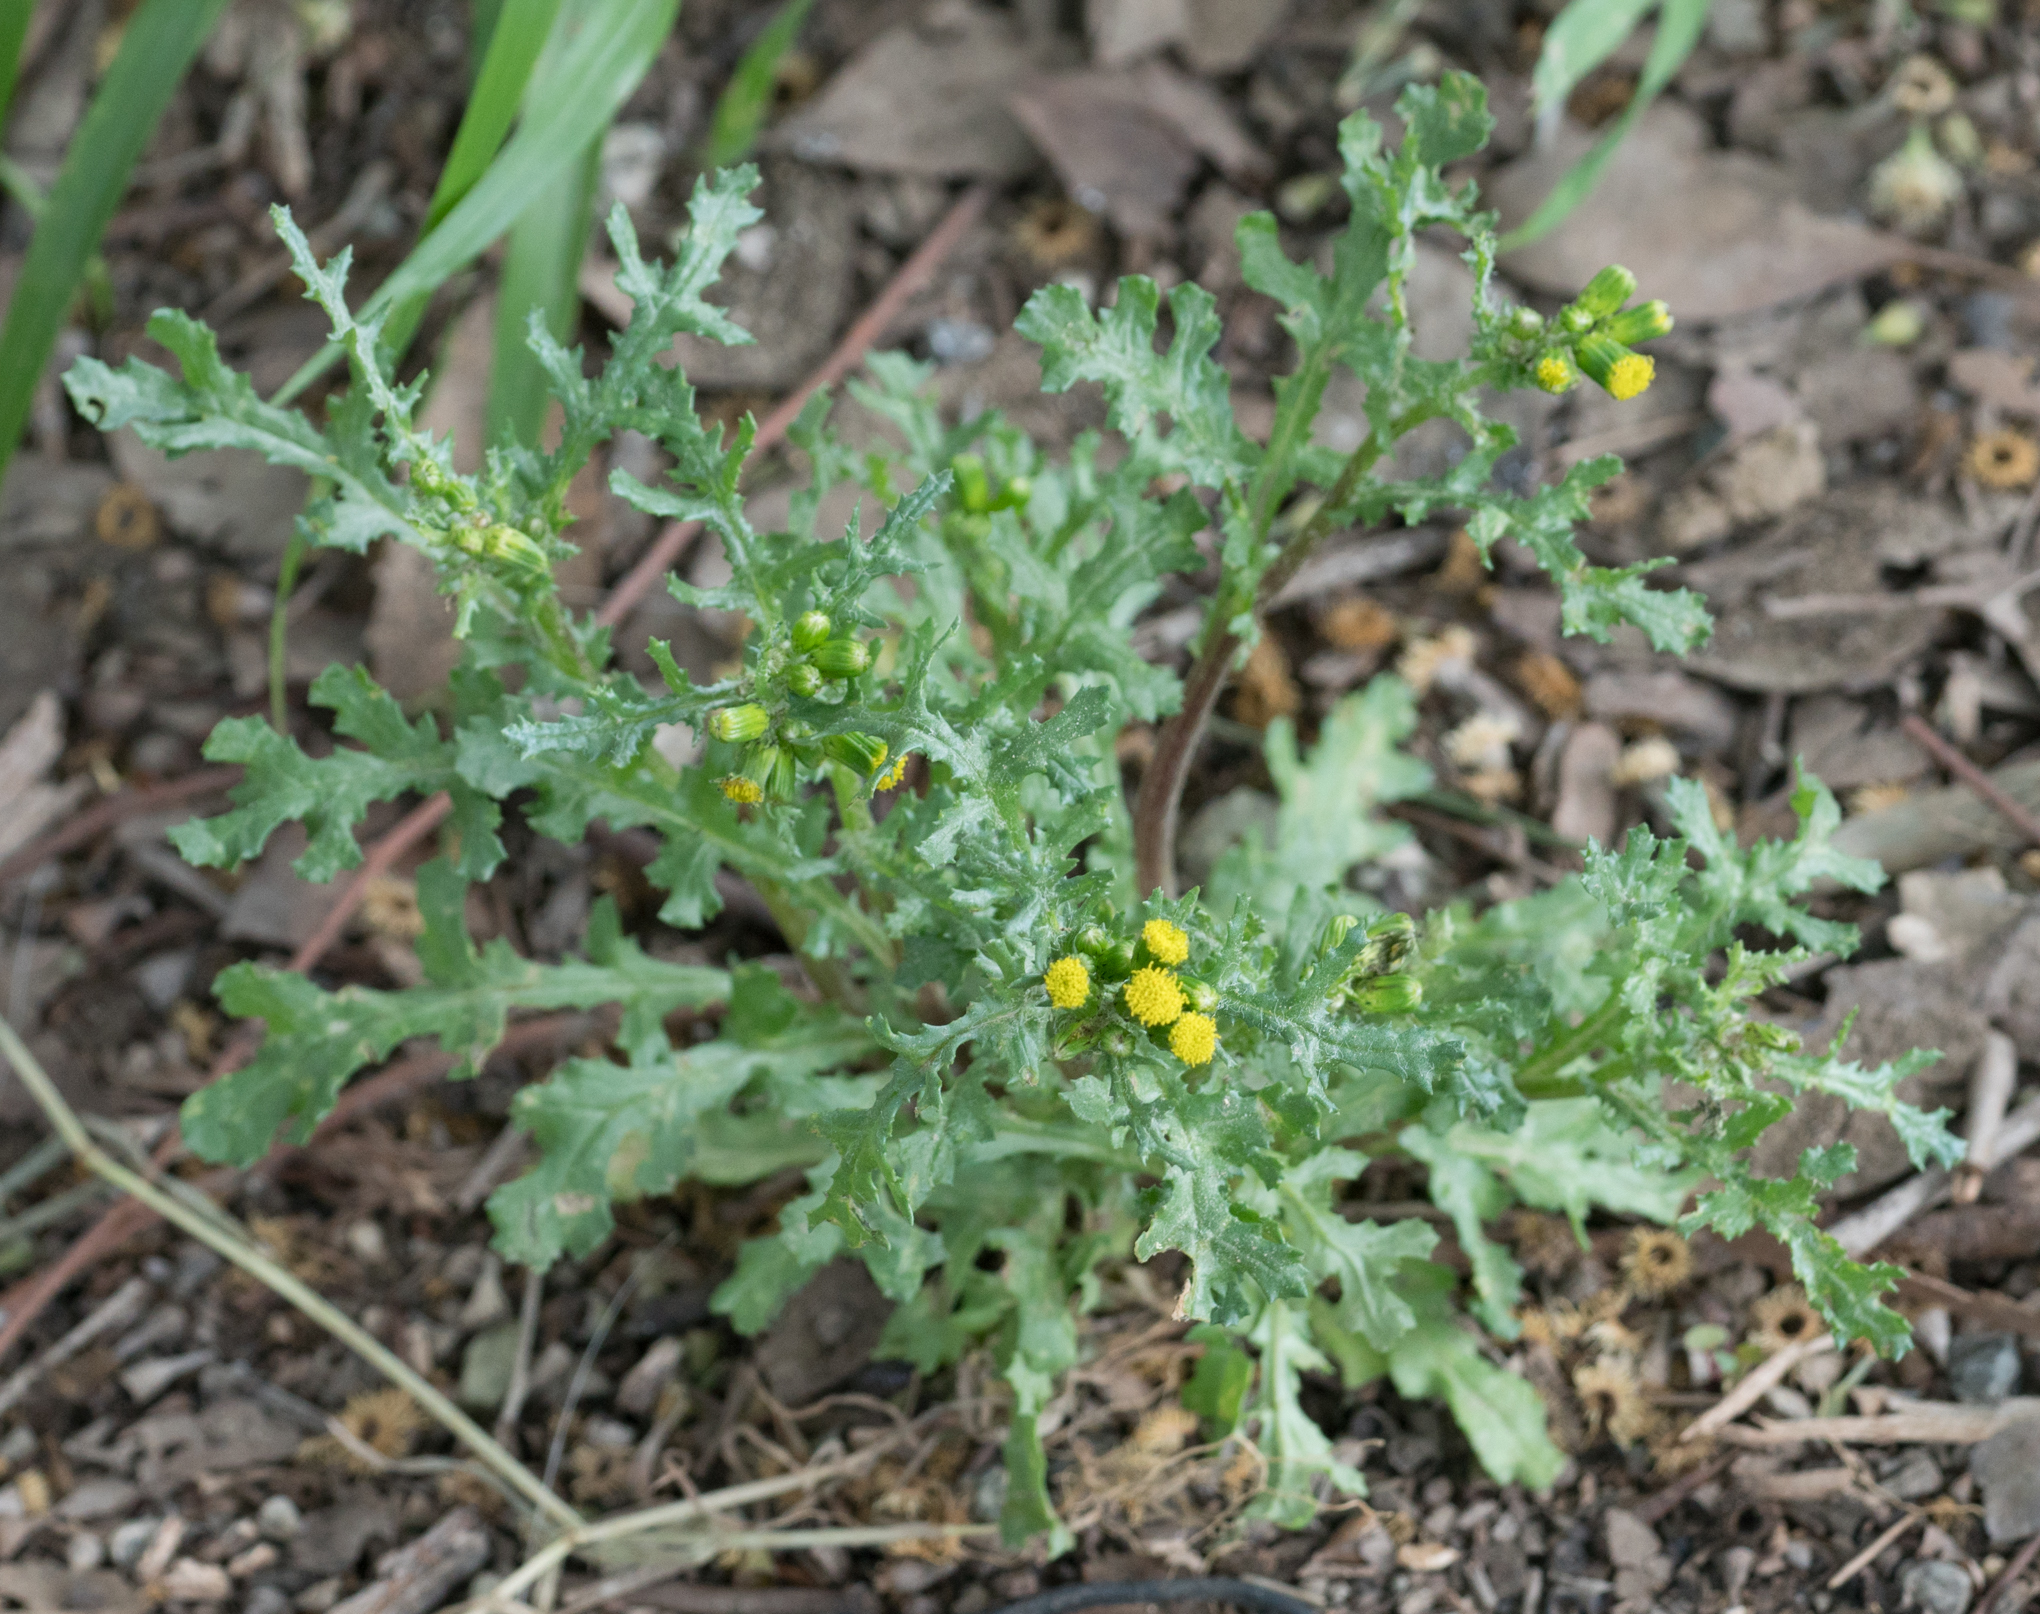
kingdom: Plantae
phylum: Tracheophyta
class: Magnoliopsida
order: Asterales
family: Asteraceae
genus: Senecio
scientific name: Senecio vulgaris
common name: Old-man-in-the-spring
